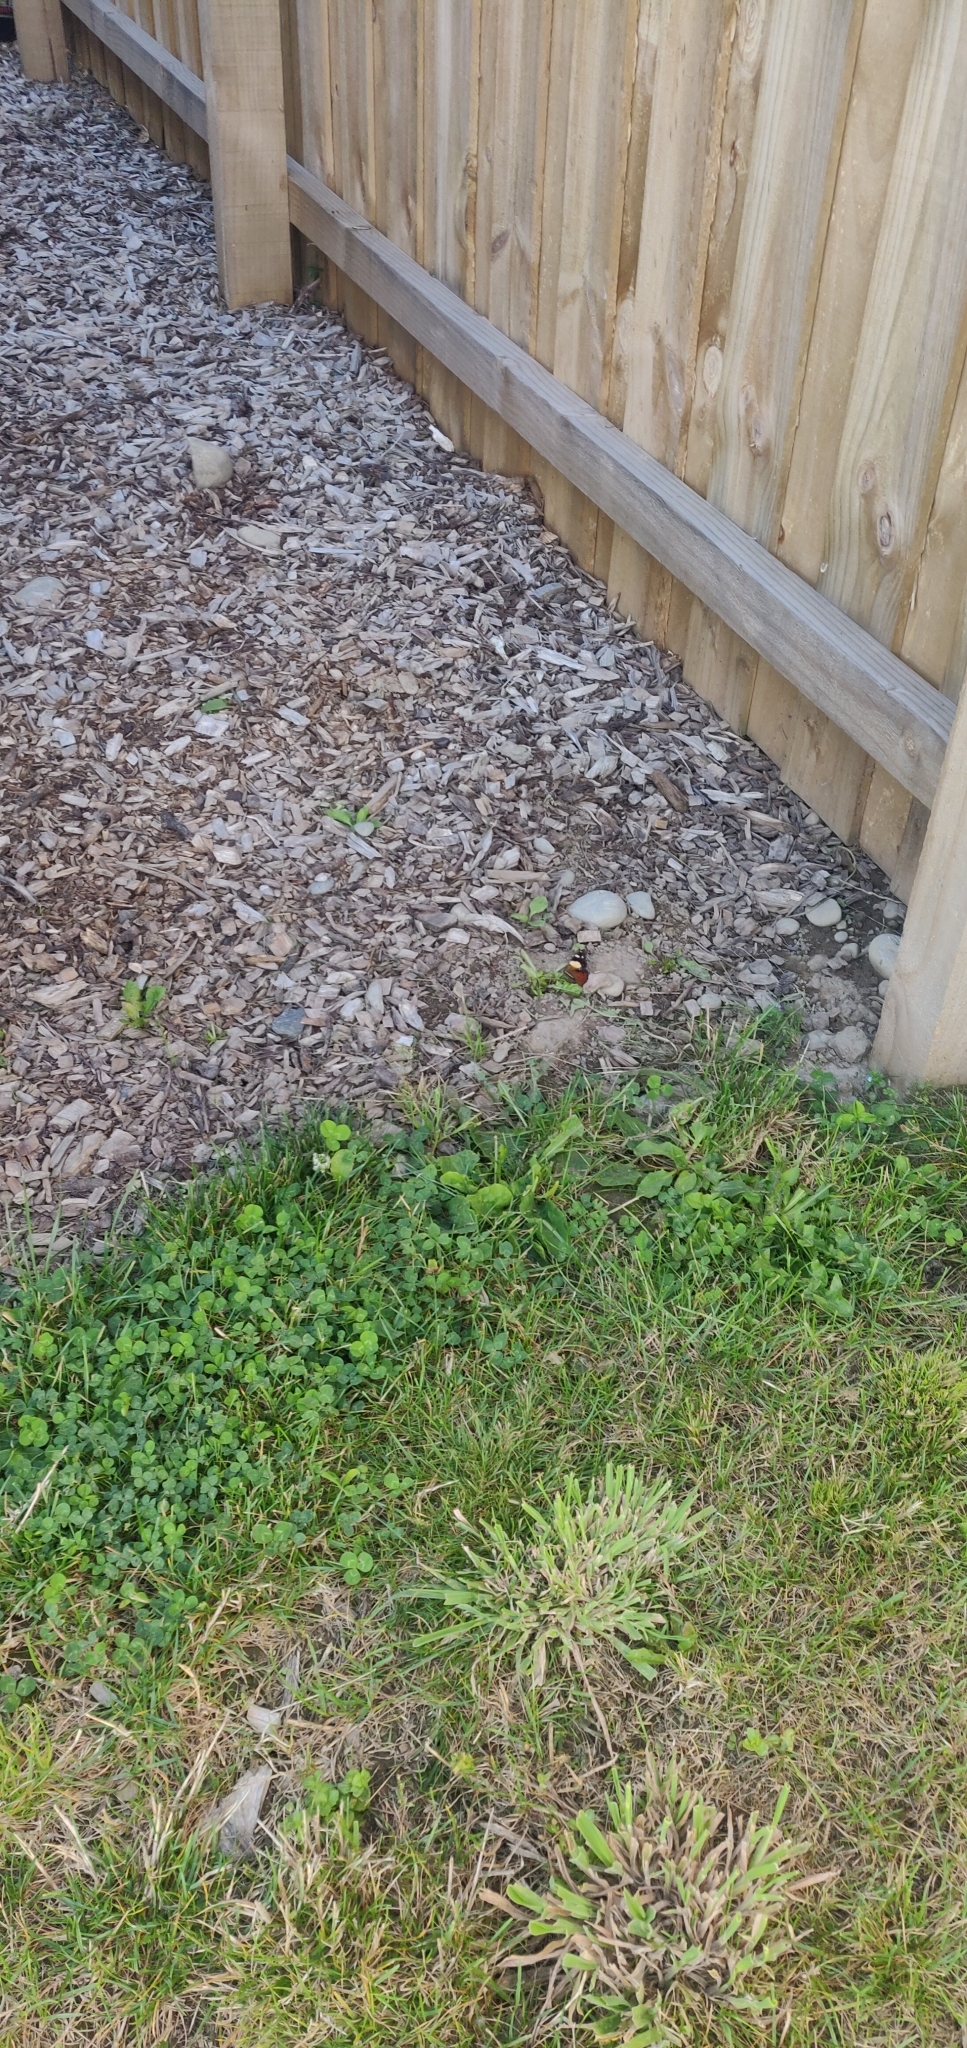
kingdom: Animalia
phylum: Arthropoda
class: Insecta
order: Lepidoptera
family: Nymphalidae
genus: Vanessa
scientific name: Vanessa itea
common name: Yellow admiral
